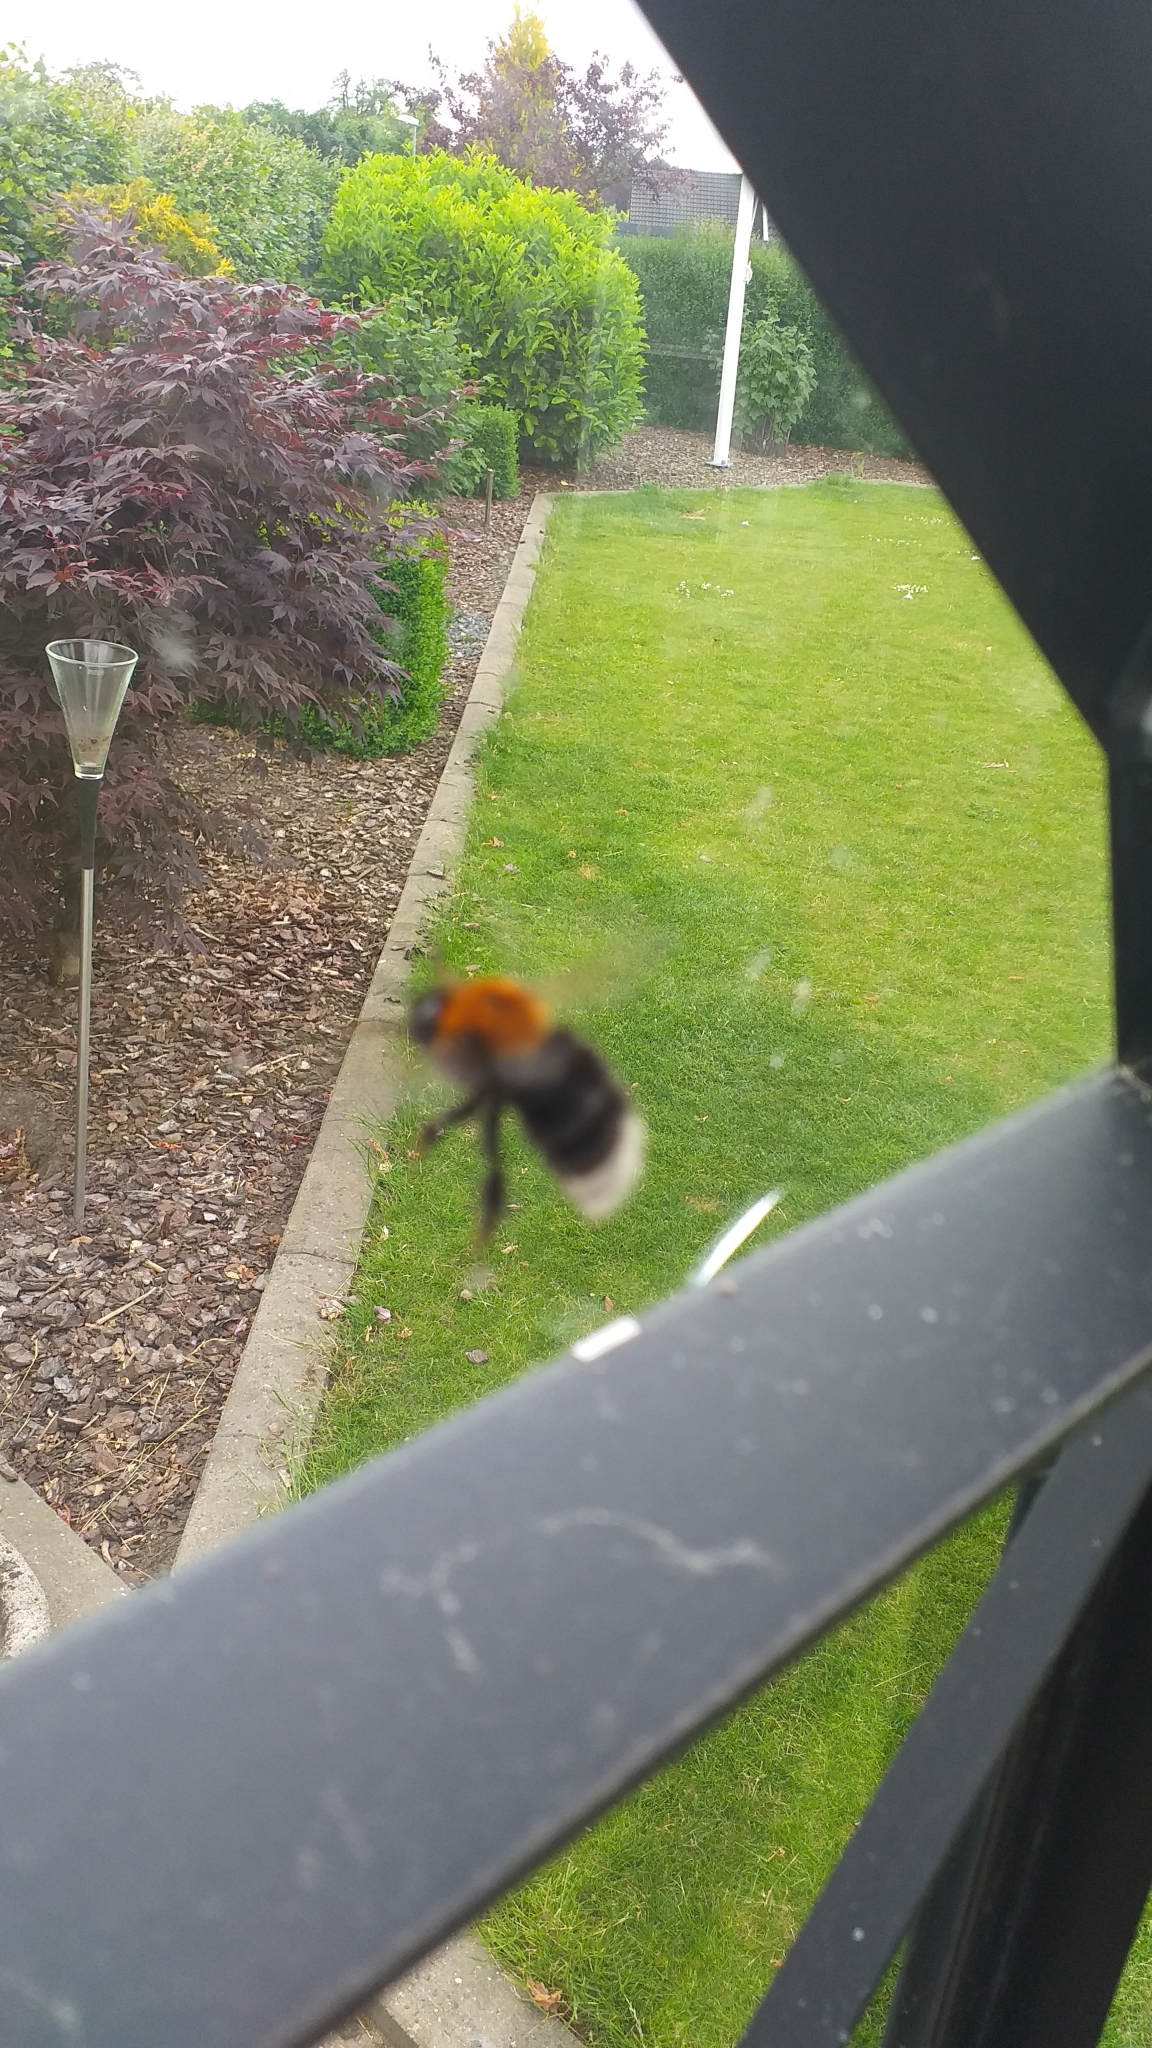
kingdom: Animalia
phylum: Arthropoda
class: Insecta
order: Hymenoptera
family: Apidae
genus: Bombus
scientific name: Bombus hypnorum
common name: New garden bumblebee
